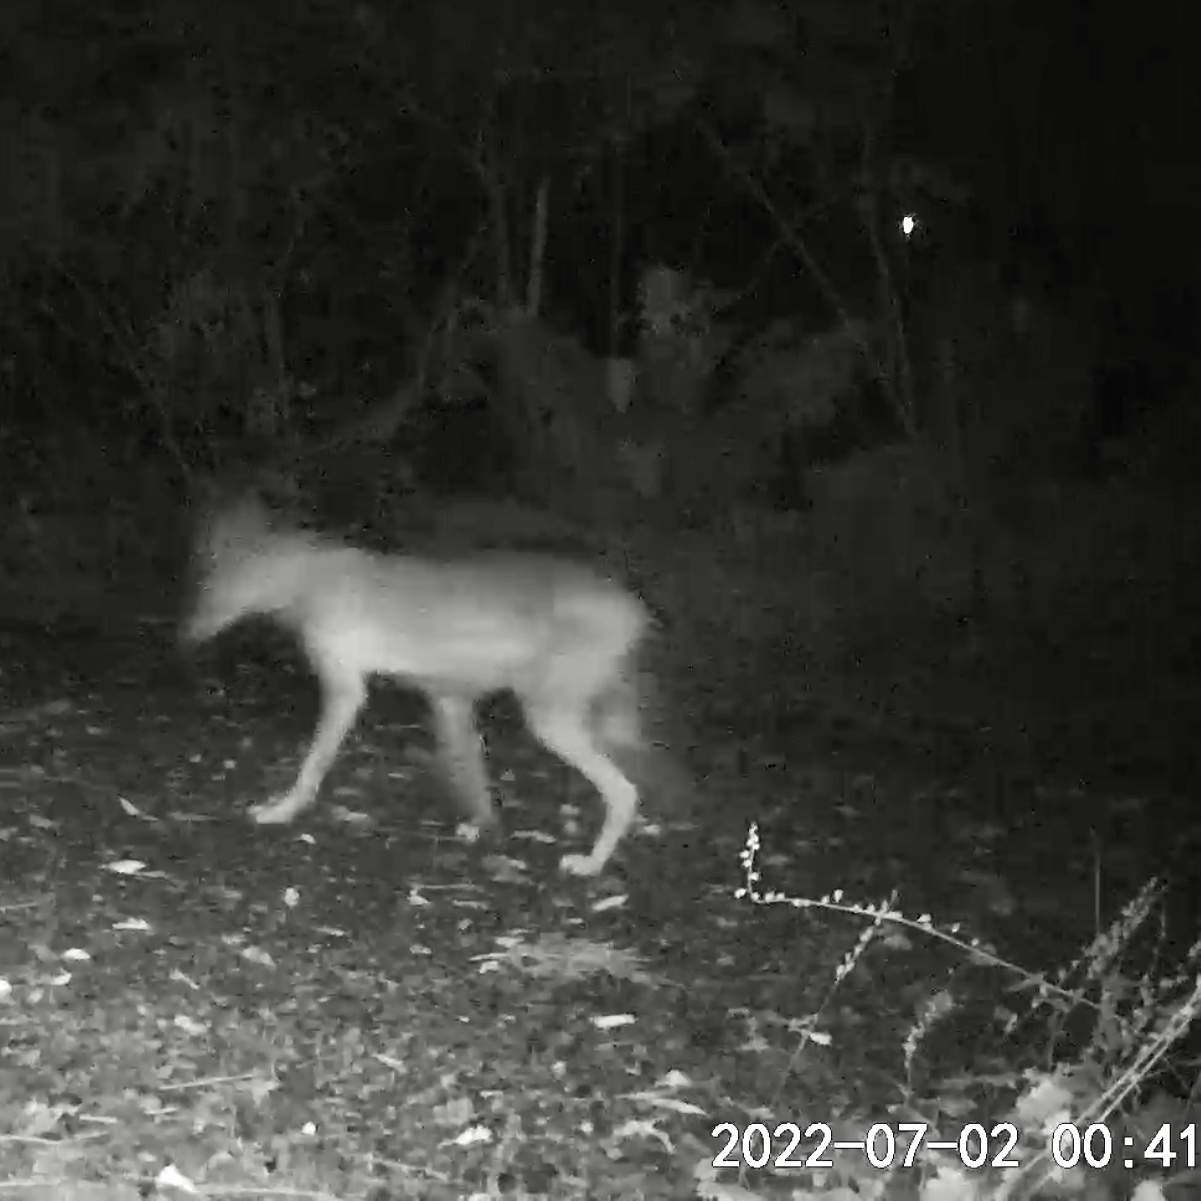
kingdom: Animalia
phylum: Chordata
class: Mammalia
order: Carnivora
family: Canidae
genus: Canis
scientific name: Canis latrans
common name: Coyote
